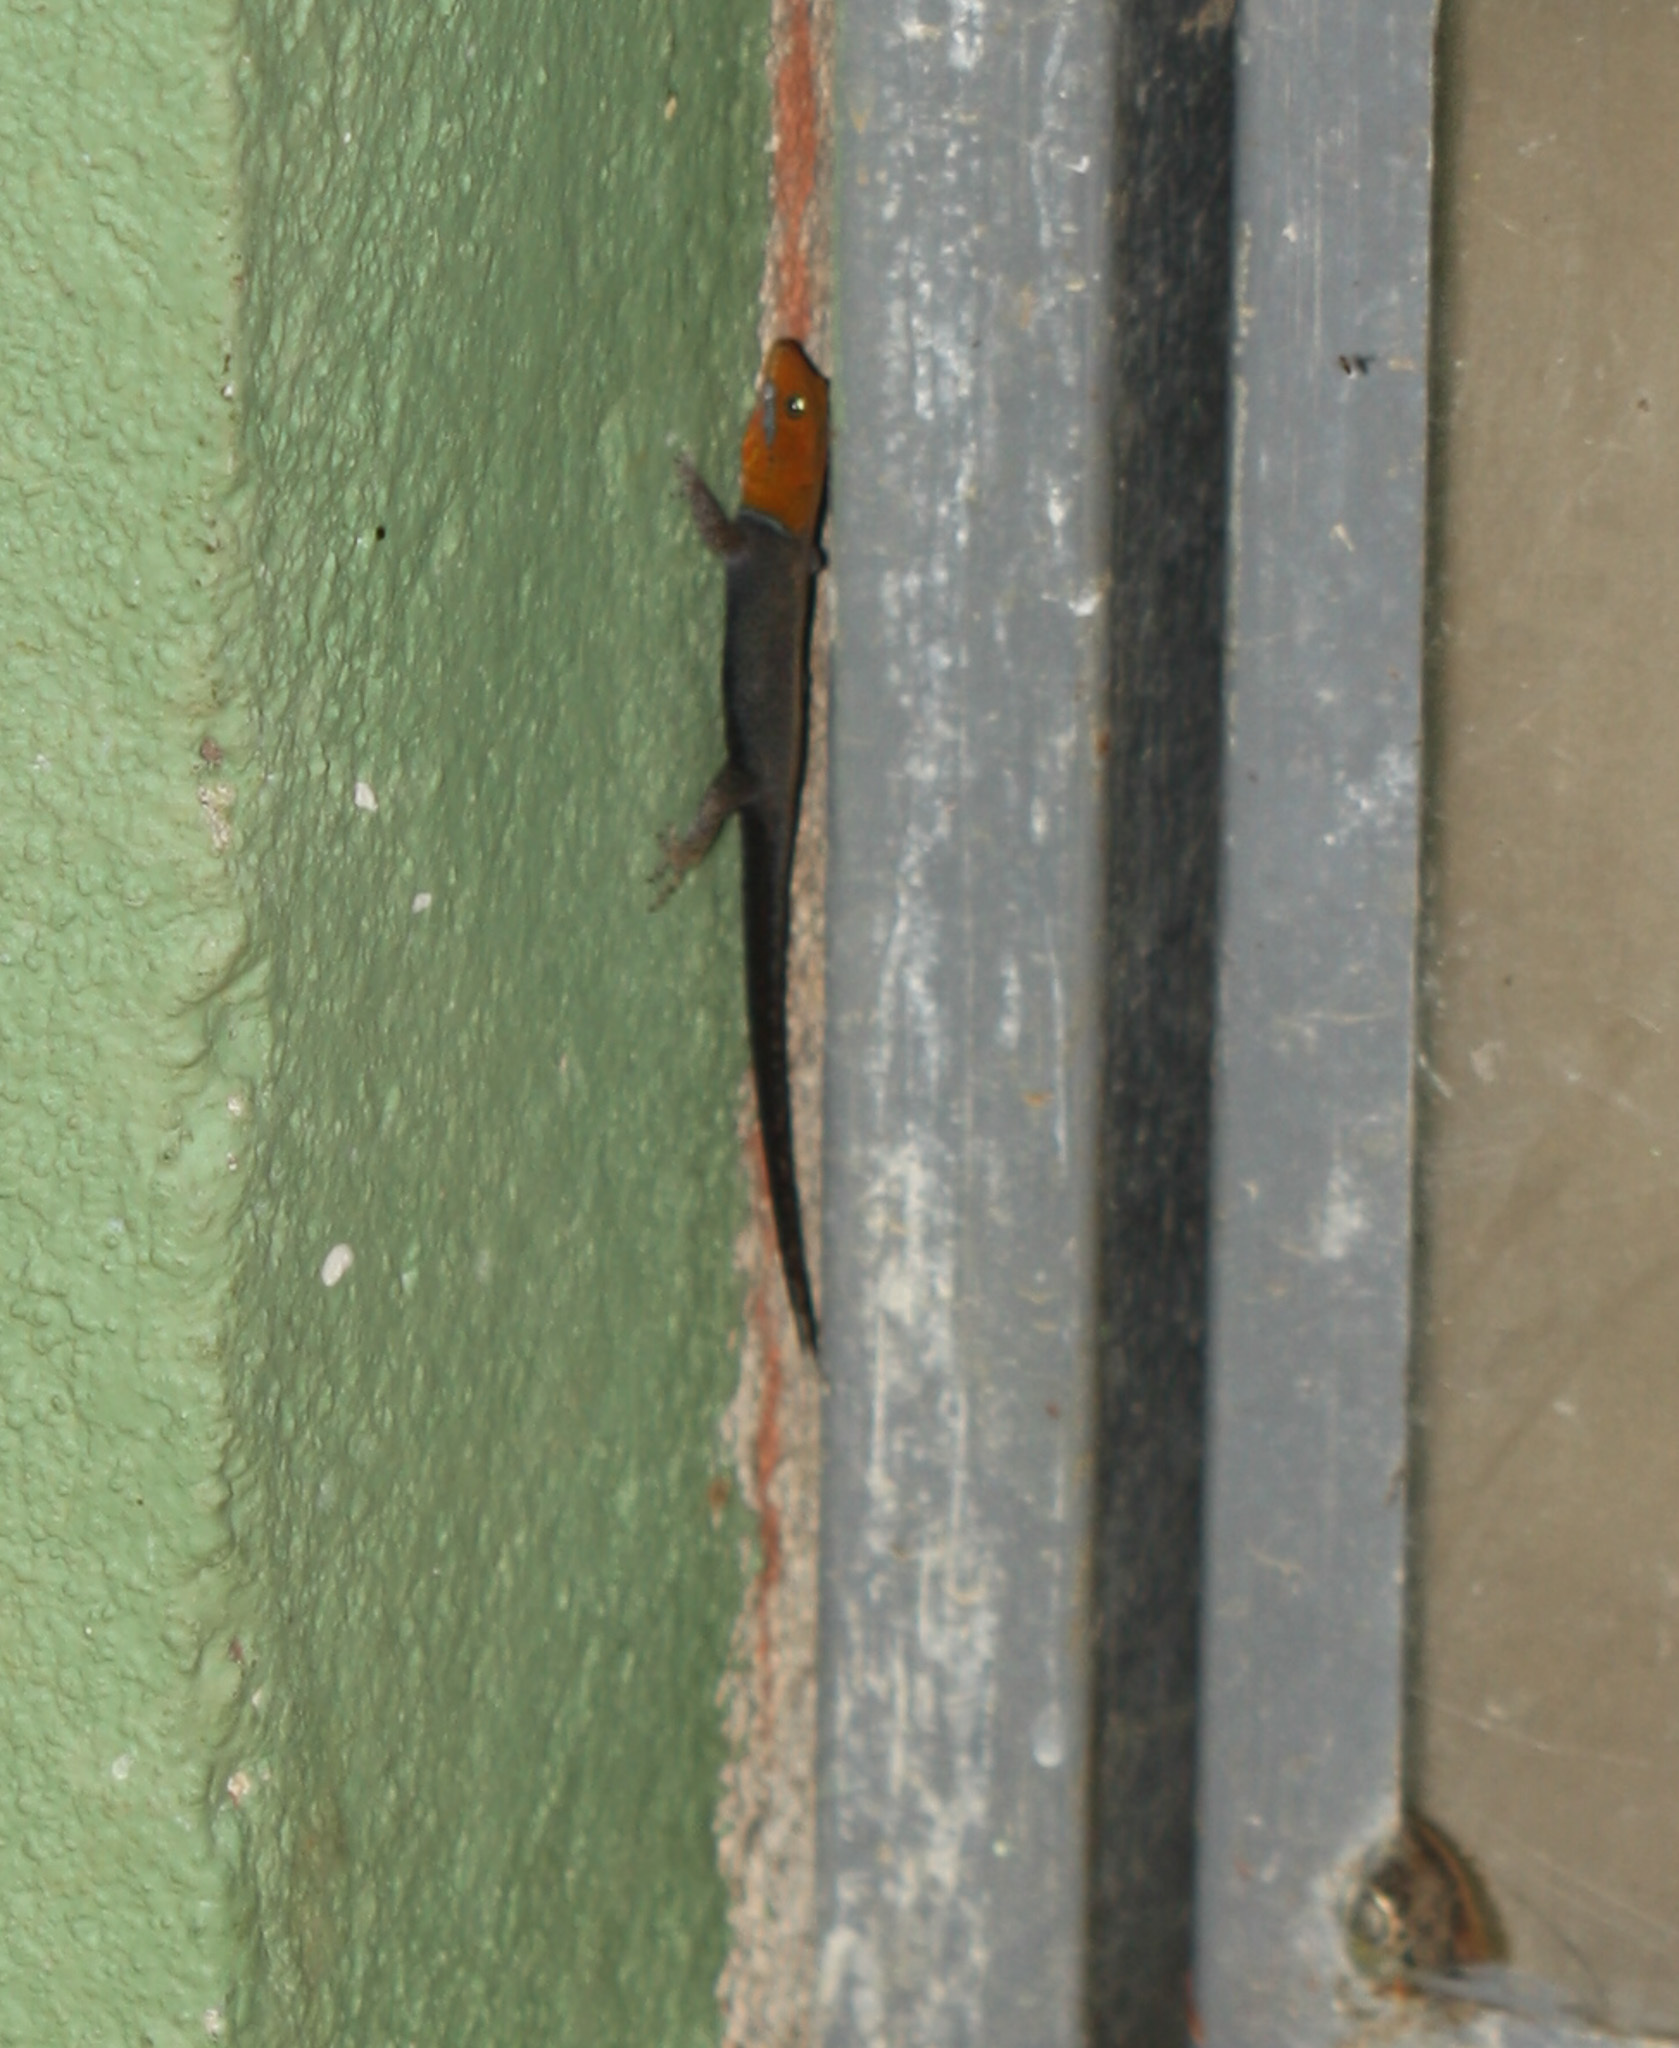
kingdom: Animalia
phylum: Chordata
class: Squamata
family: Sphaerodactylidae
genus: Gonatodes
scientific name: Gonatodes albogularis
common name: Yellow-headed gecko
